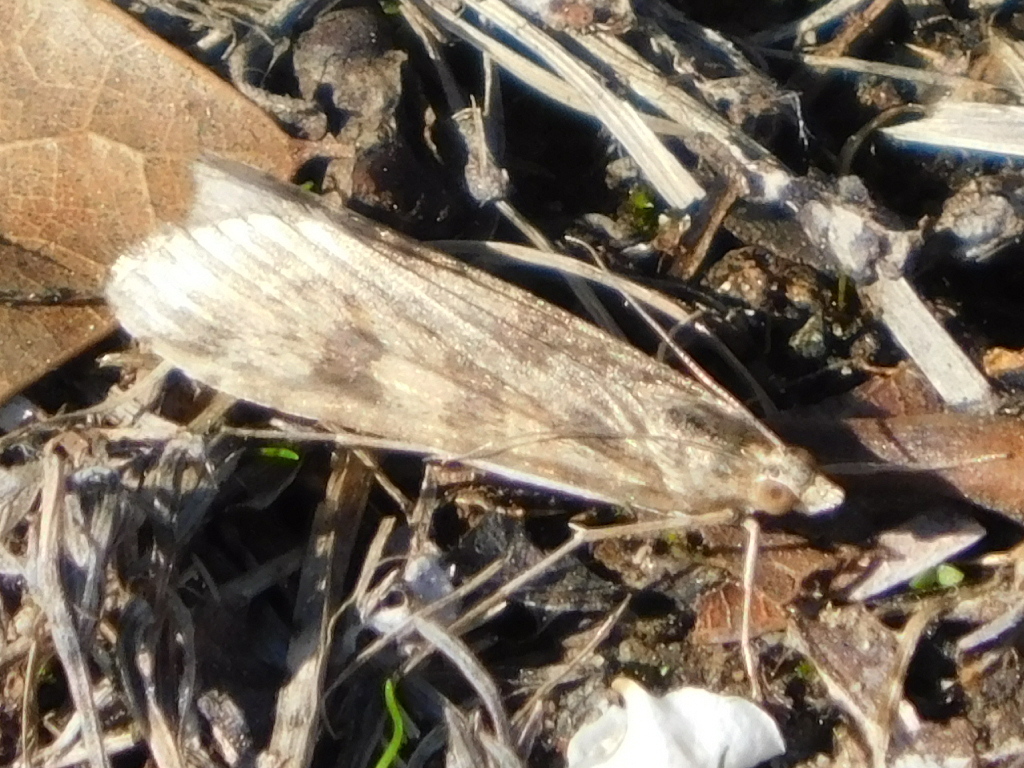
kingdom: Animalia
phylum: Arthropoda
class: Insecta
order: Lepidoptera
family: Crambidae
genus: Nomophila
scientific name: Nomophila nearctica
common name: American rush veneer
